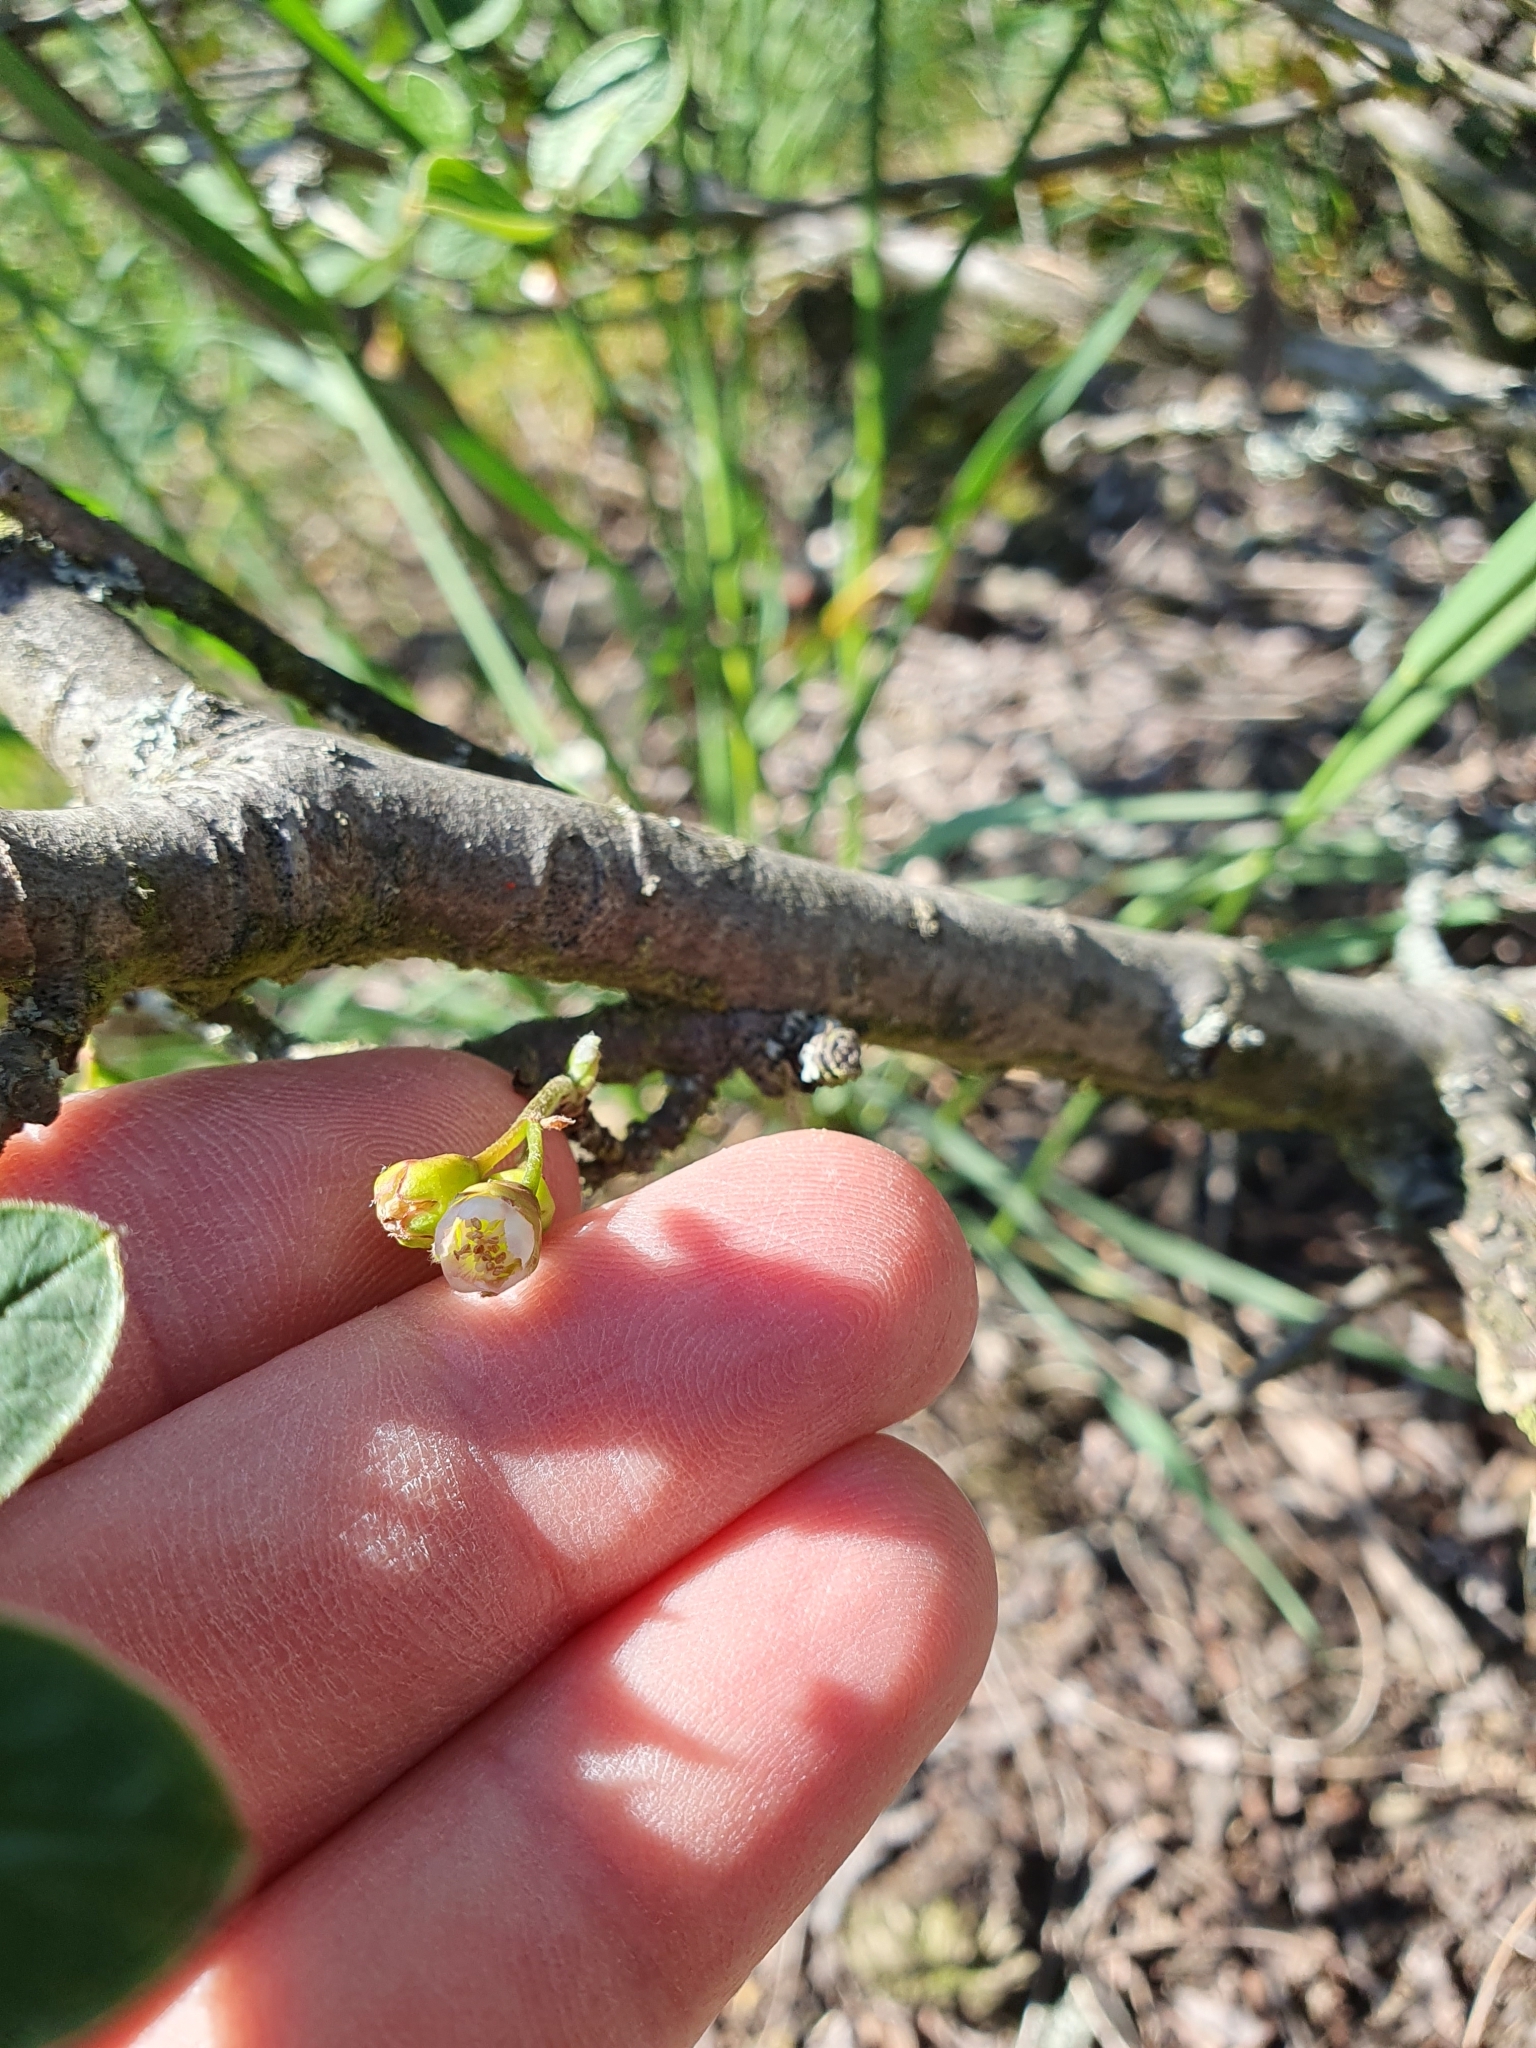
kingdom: Plantae
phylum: Tracheophyta
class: Magnoliopsida
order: Rosales
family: Rosaceae
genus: Cotoneaster
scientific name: Cotoneaster integerrimus
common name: Wild cotoneaster
